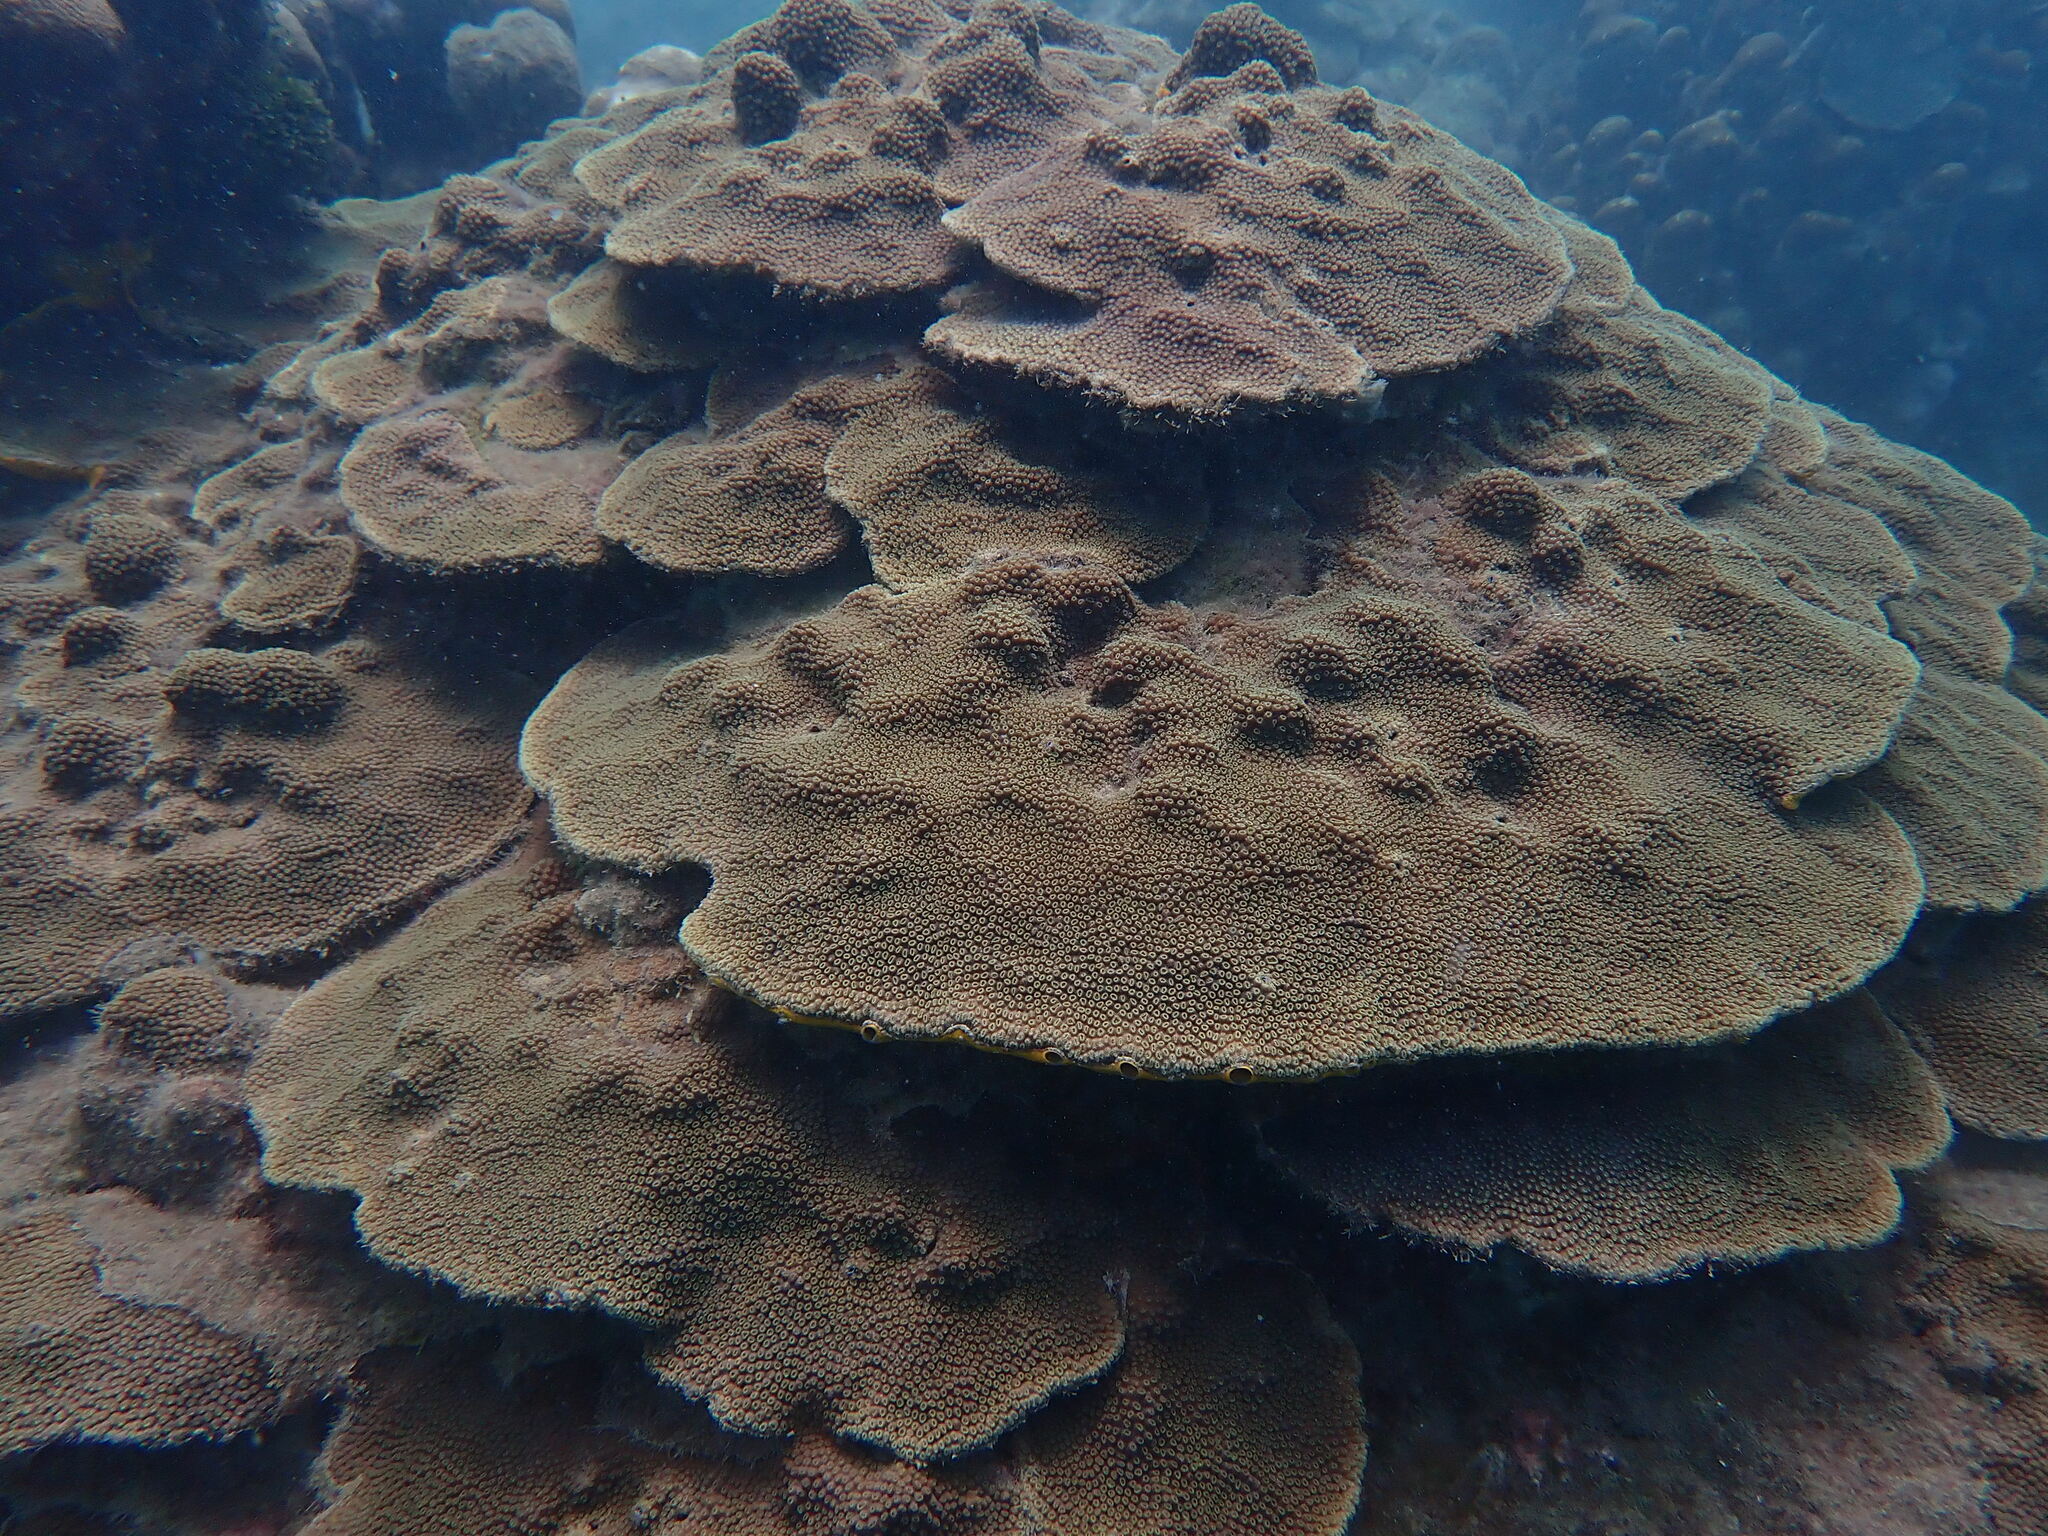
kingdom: Animalia
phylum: Cnidaria
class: Anthozoa
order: Scleractinia
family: Merulinidae
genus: Orbicella
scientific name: Orbicella faveolata
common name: Mountainous star coral
